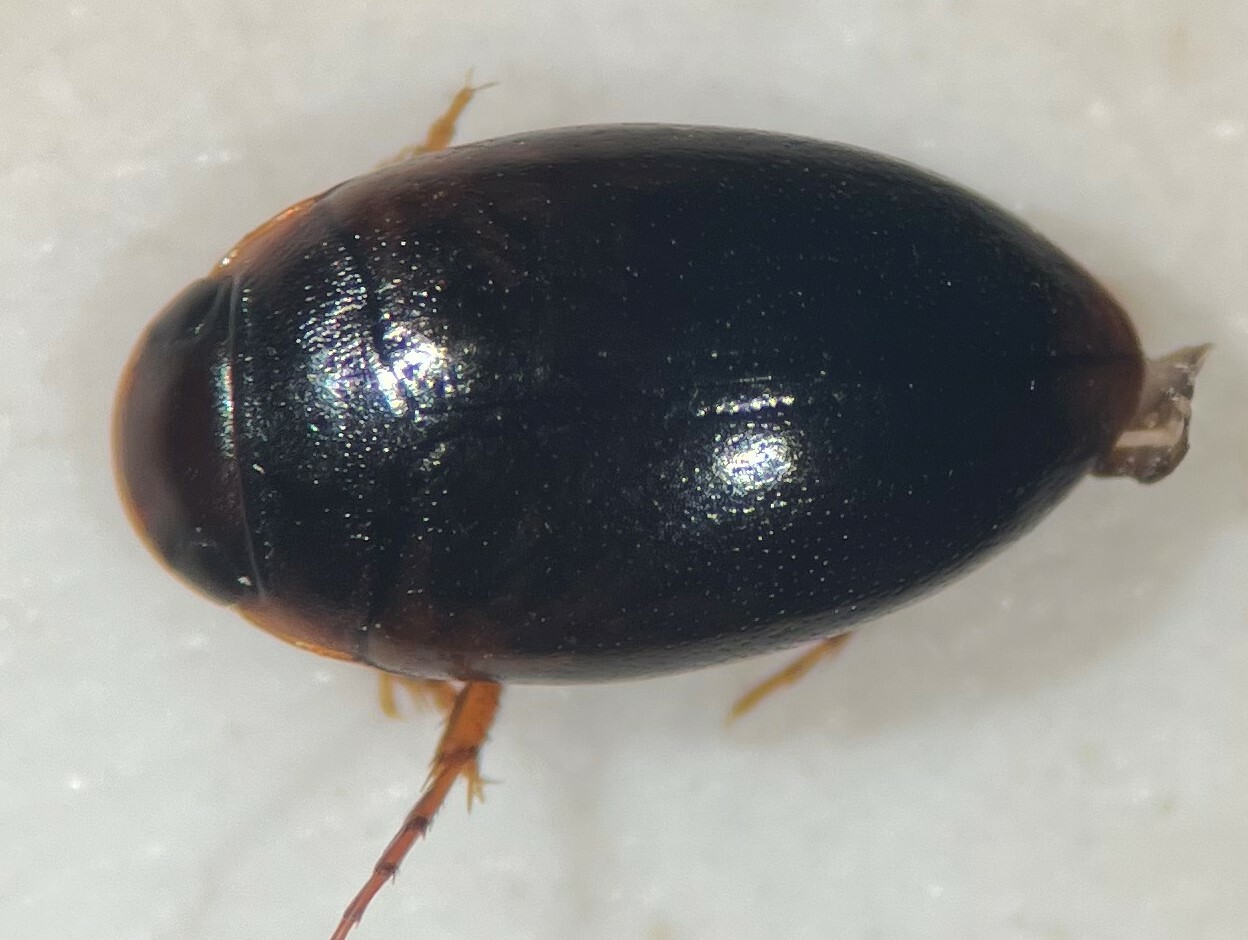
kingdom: Animalia
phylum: Arthropoda
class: Insecta
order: Coleoptera
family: Dytiscidae
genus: Sanfilippodytes
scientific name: Sanfilippodytes vilis
